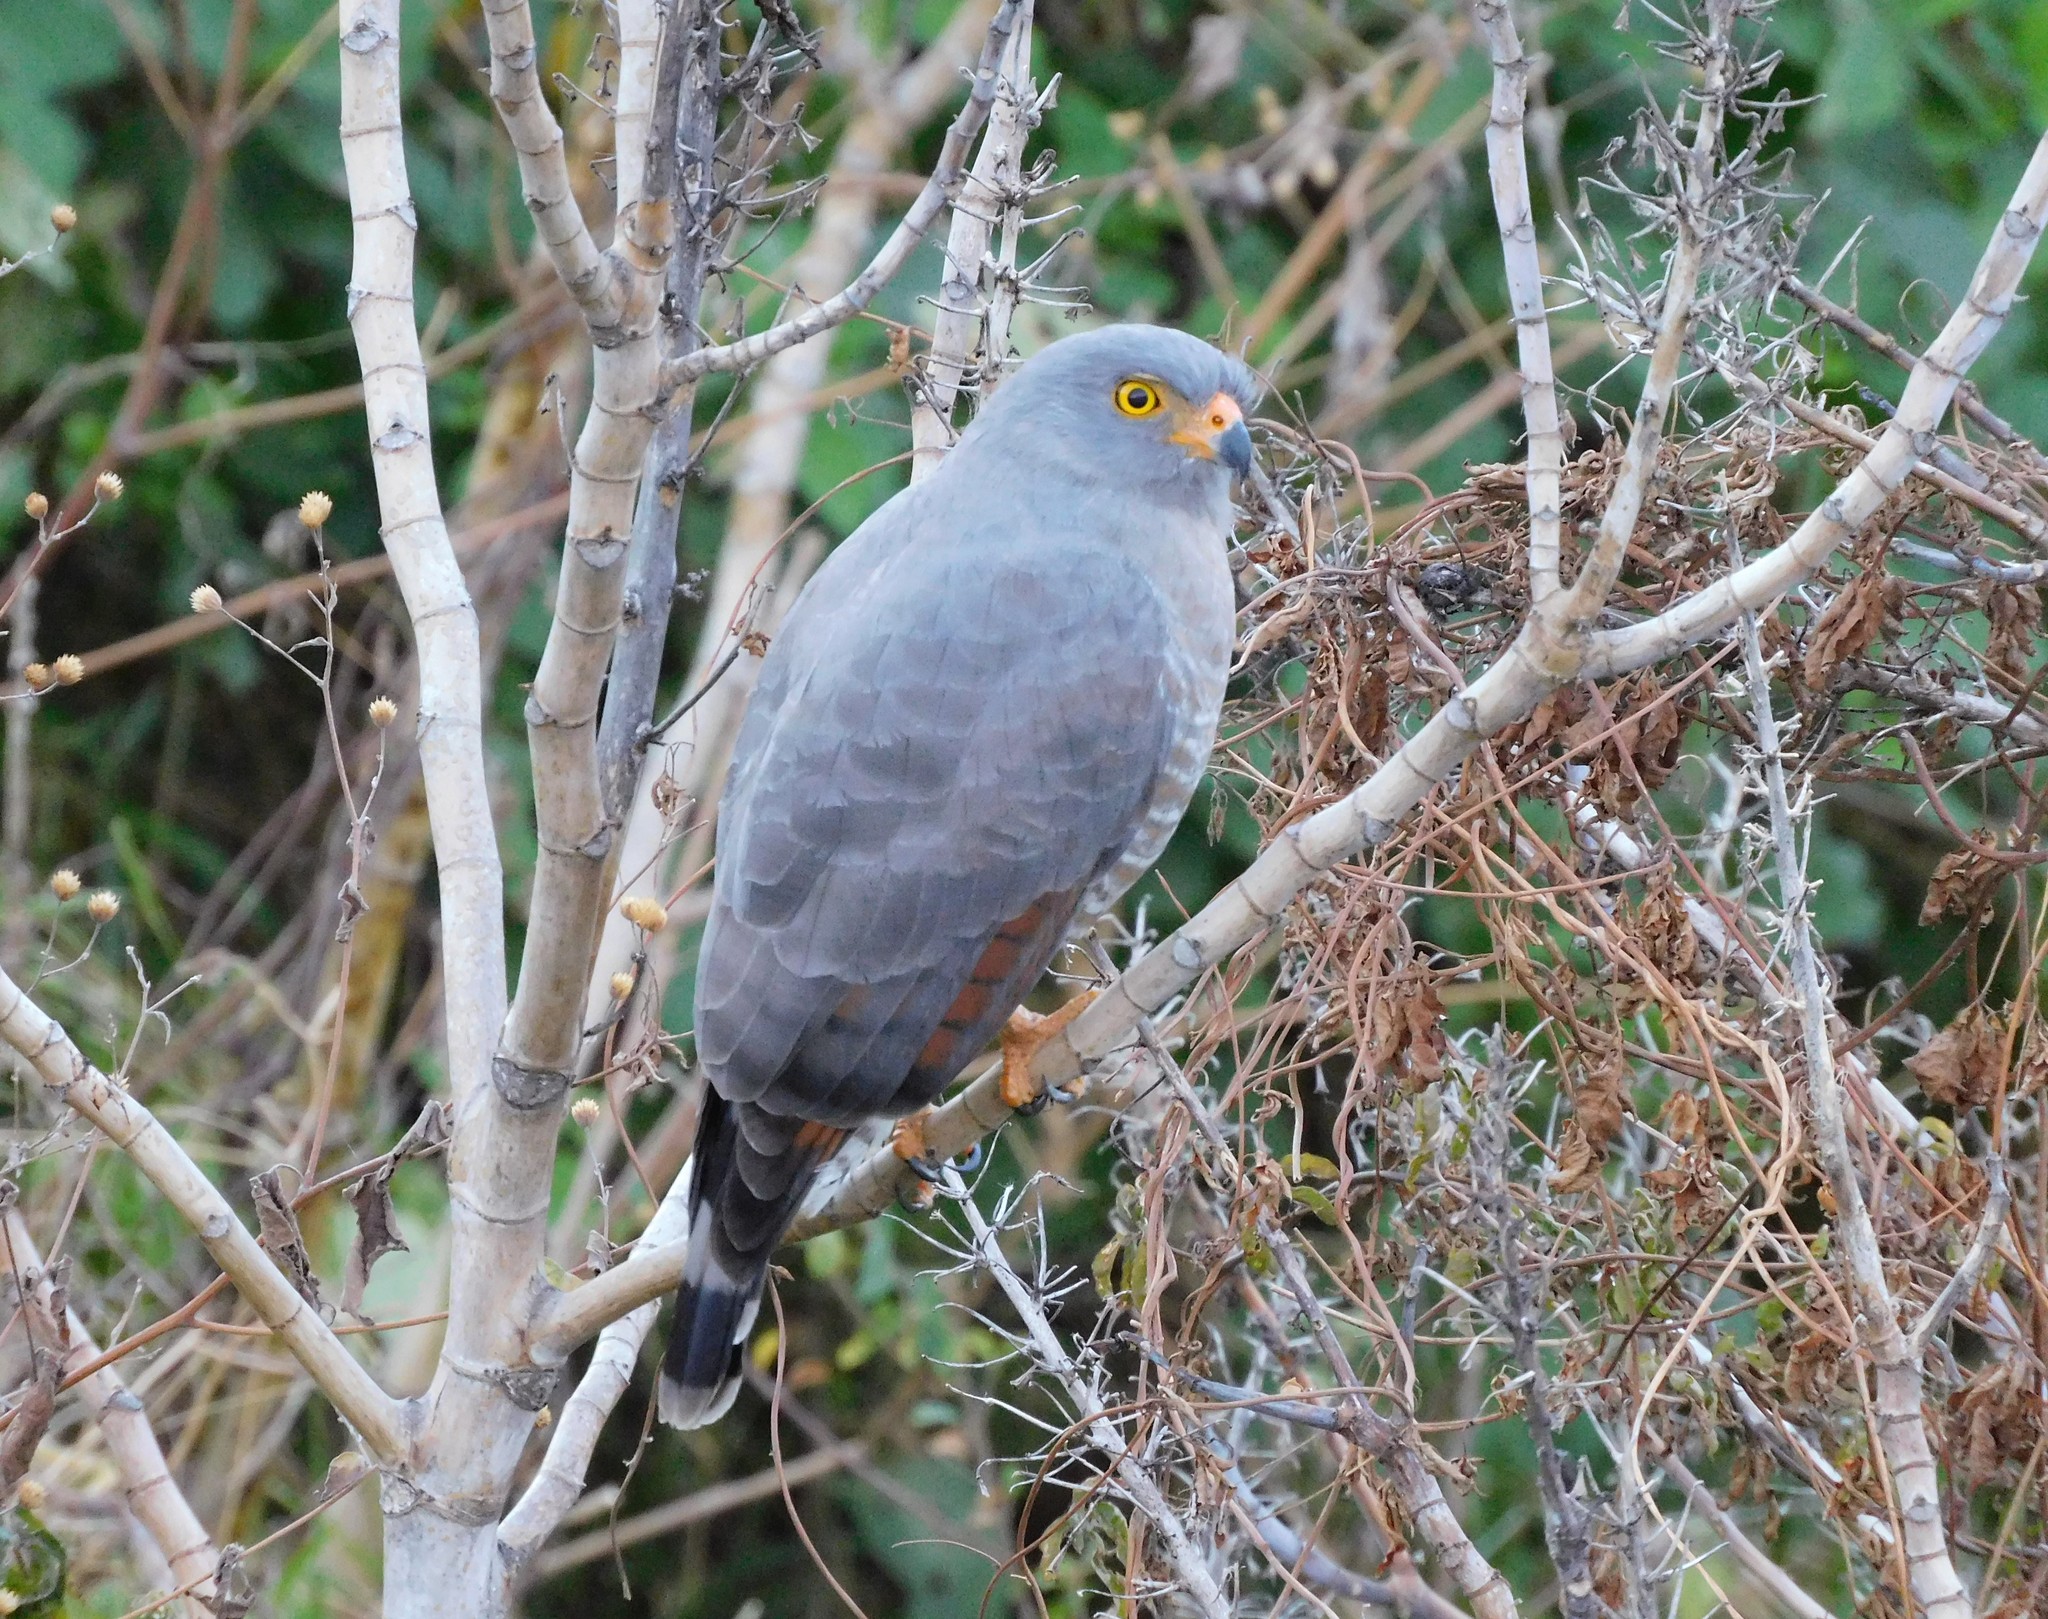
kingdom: Animalia
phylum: Chordata
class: Aves
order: Accipitriformes
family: Accipitridae
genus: Rupornis
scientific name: Rupornis magnirostris
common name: Roadside hawk
